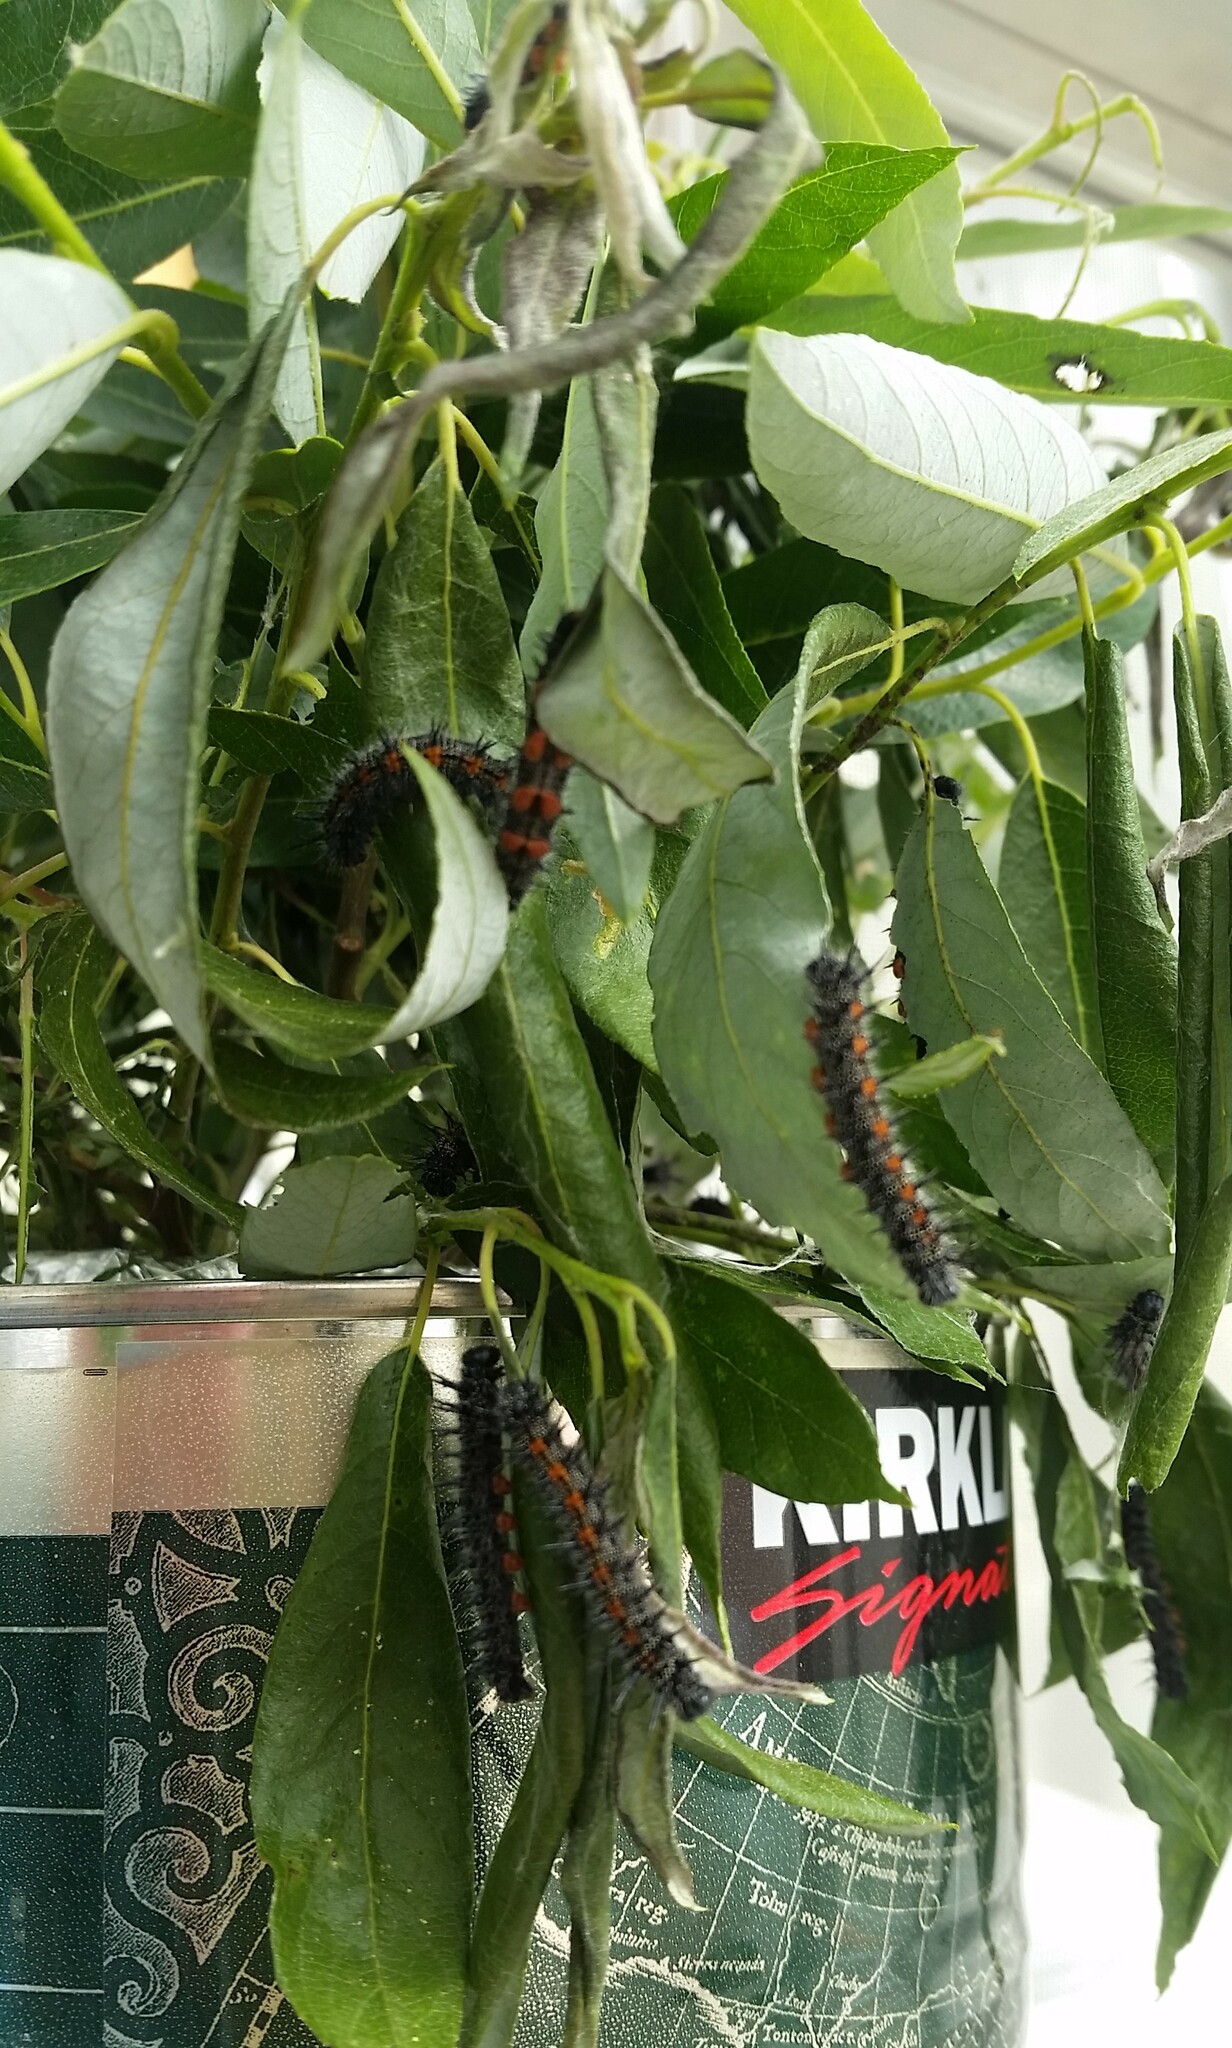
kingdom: Animalia
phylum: Arthropoda
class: Insecta
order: Lepidoptera
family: Nymphalidae
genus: Nymphalis
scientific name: Nymphalis antiopa
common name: Camberwell beauty
